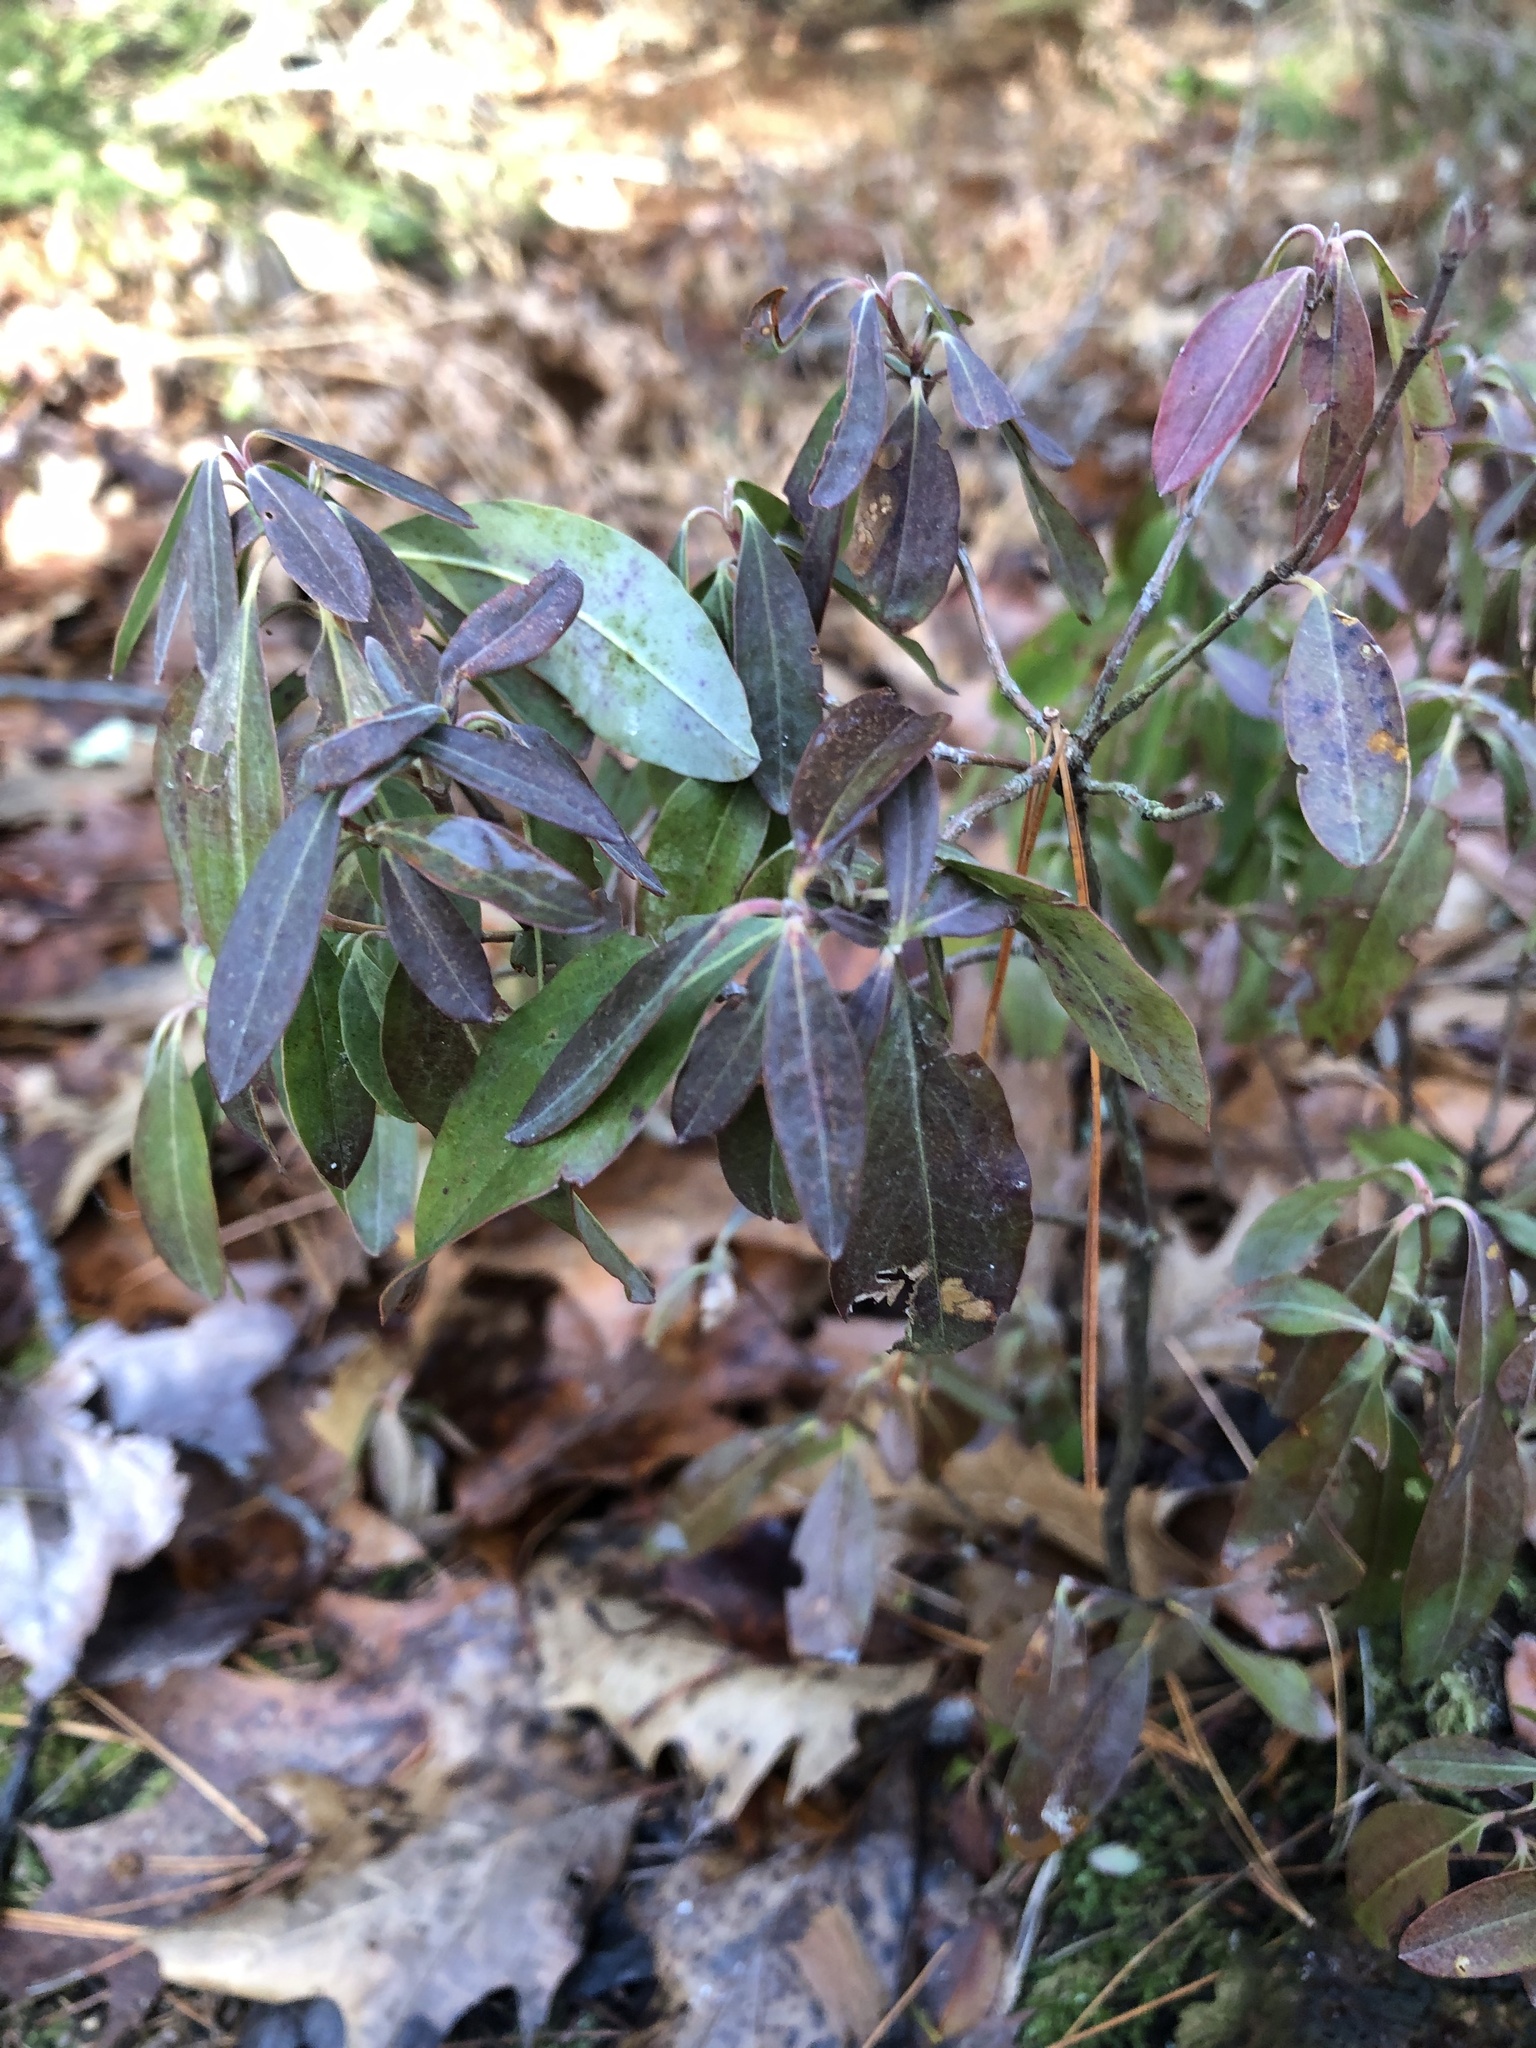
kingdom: Plantae
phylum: Tracheophyta
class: Magnoliopsida
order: Ericales
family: Ericaceae
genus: Kalmia
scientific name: Kalmia angustifolia
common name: Sheep-laurel
